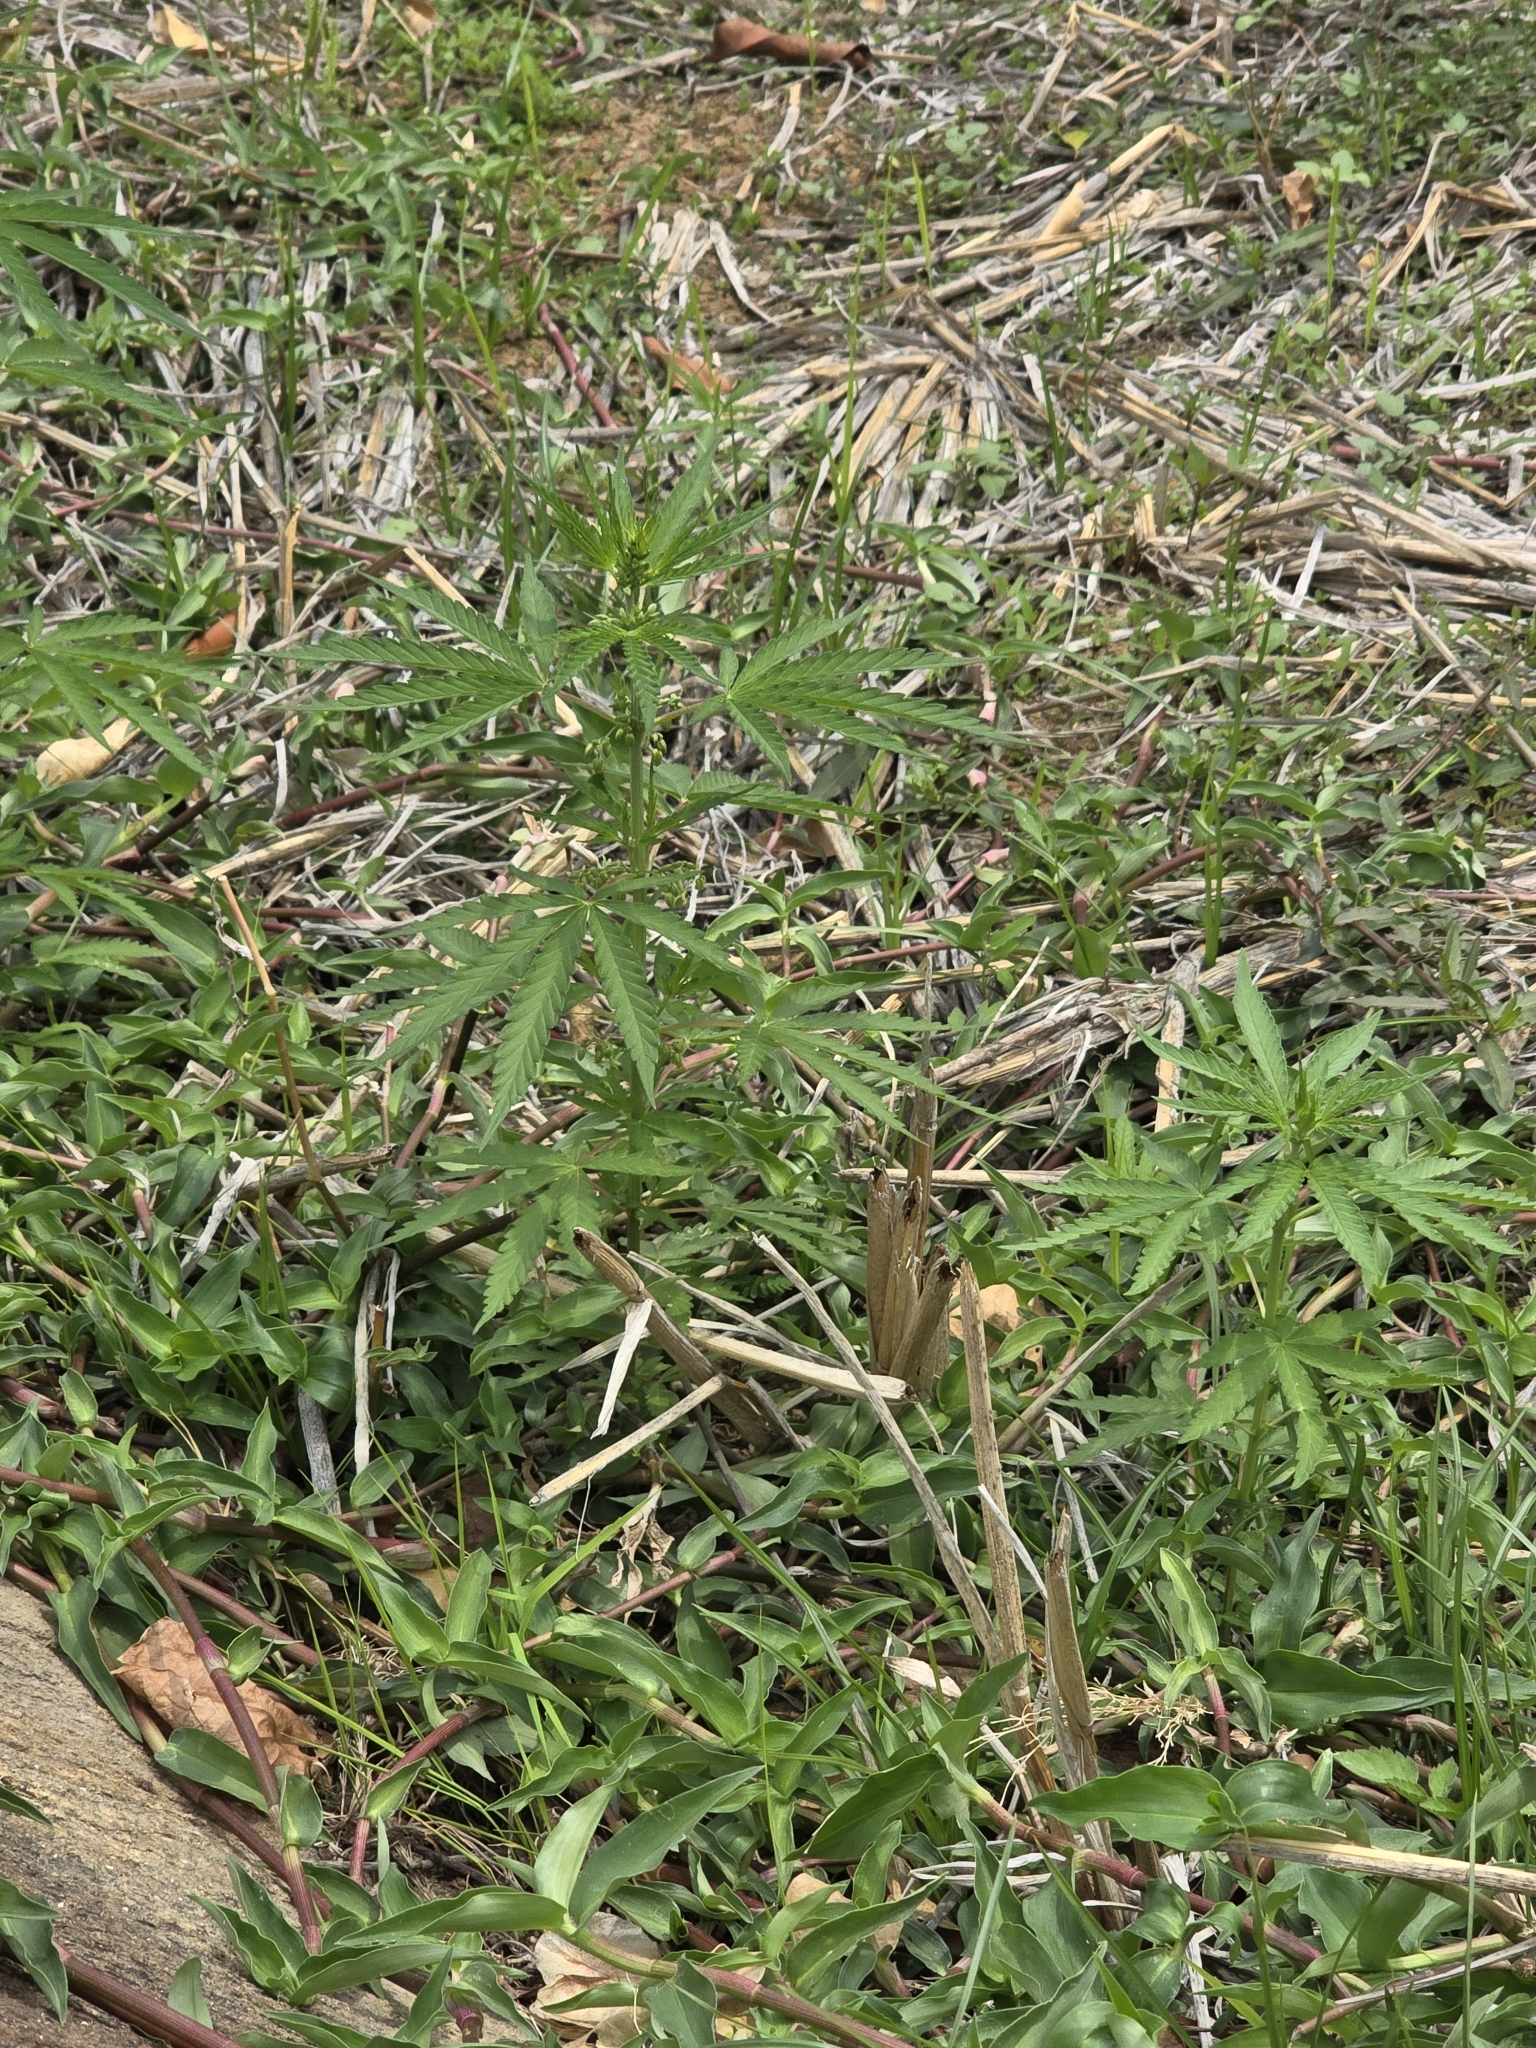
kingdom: Plantae
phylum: Tracheophyta
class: Magnoliopsida
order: Rosales
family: Cannabaceae
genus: Cannabis
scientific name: Cannabis sativa
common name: Hemp
